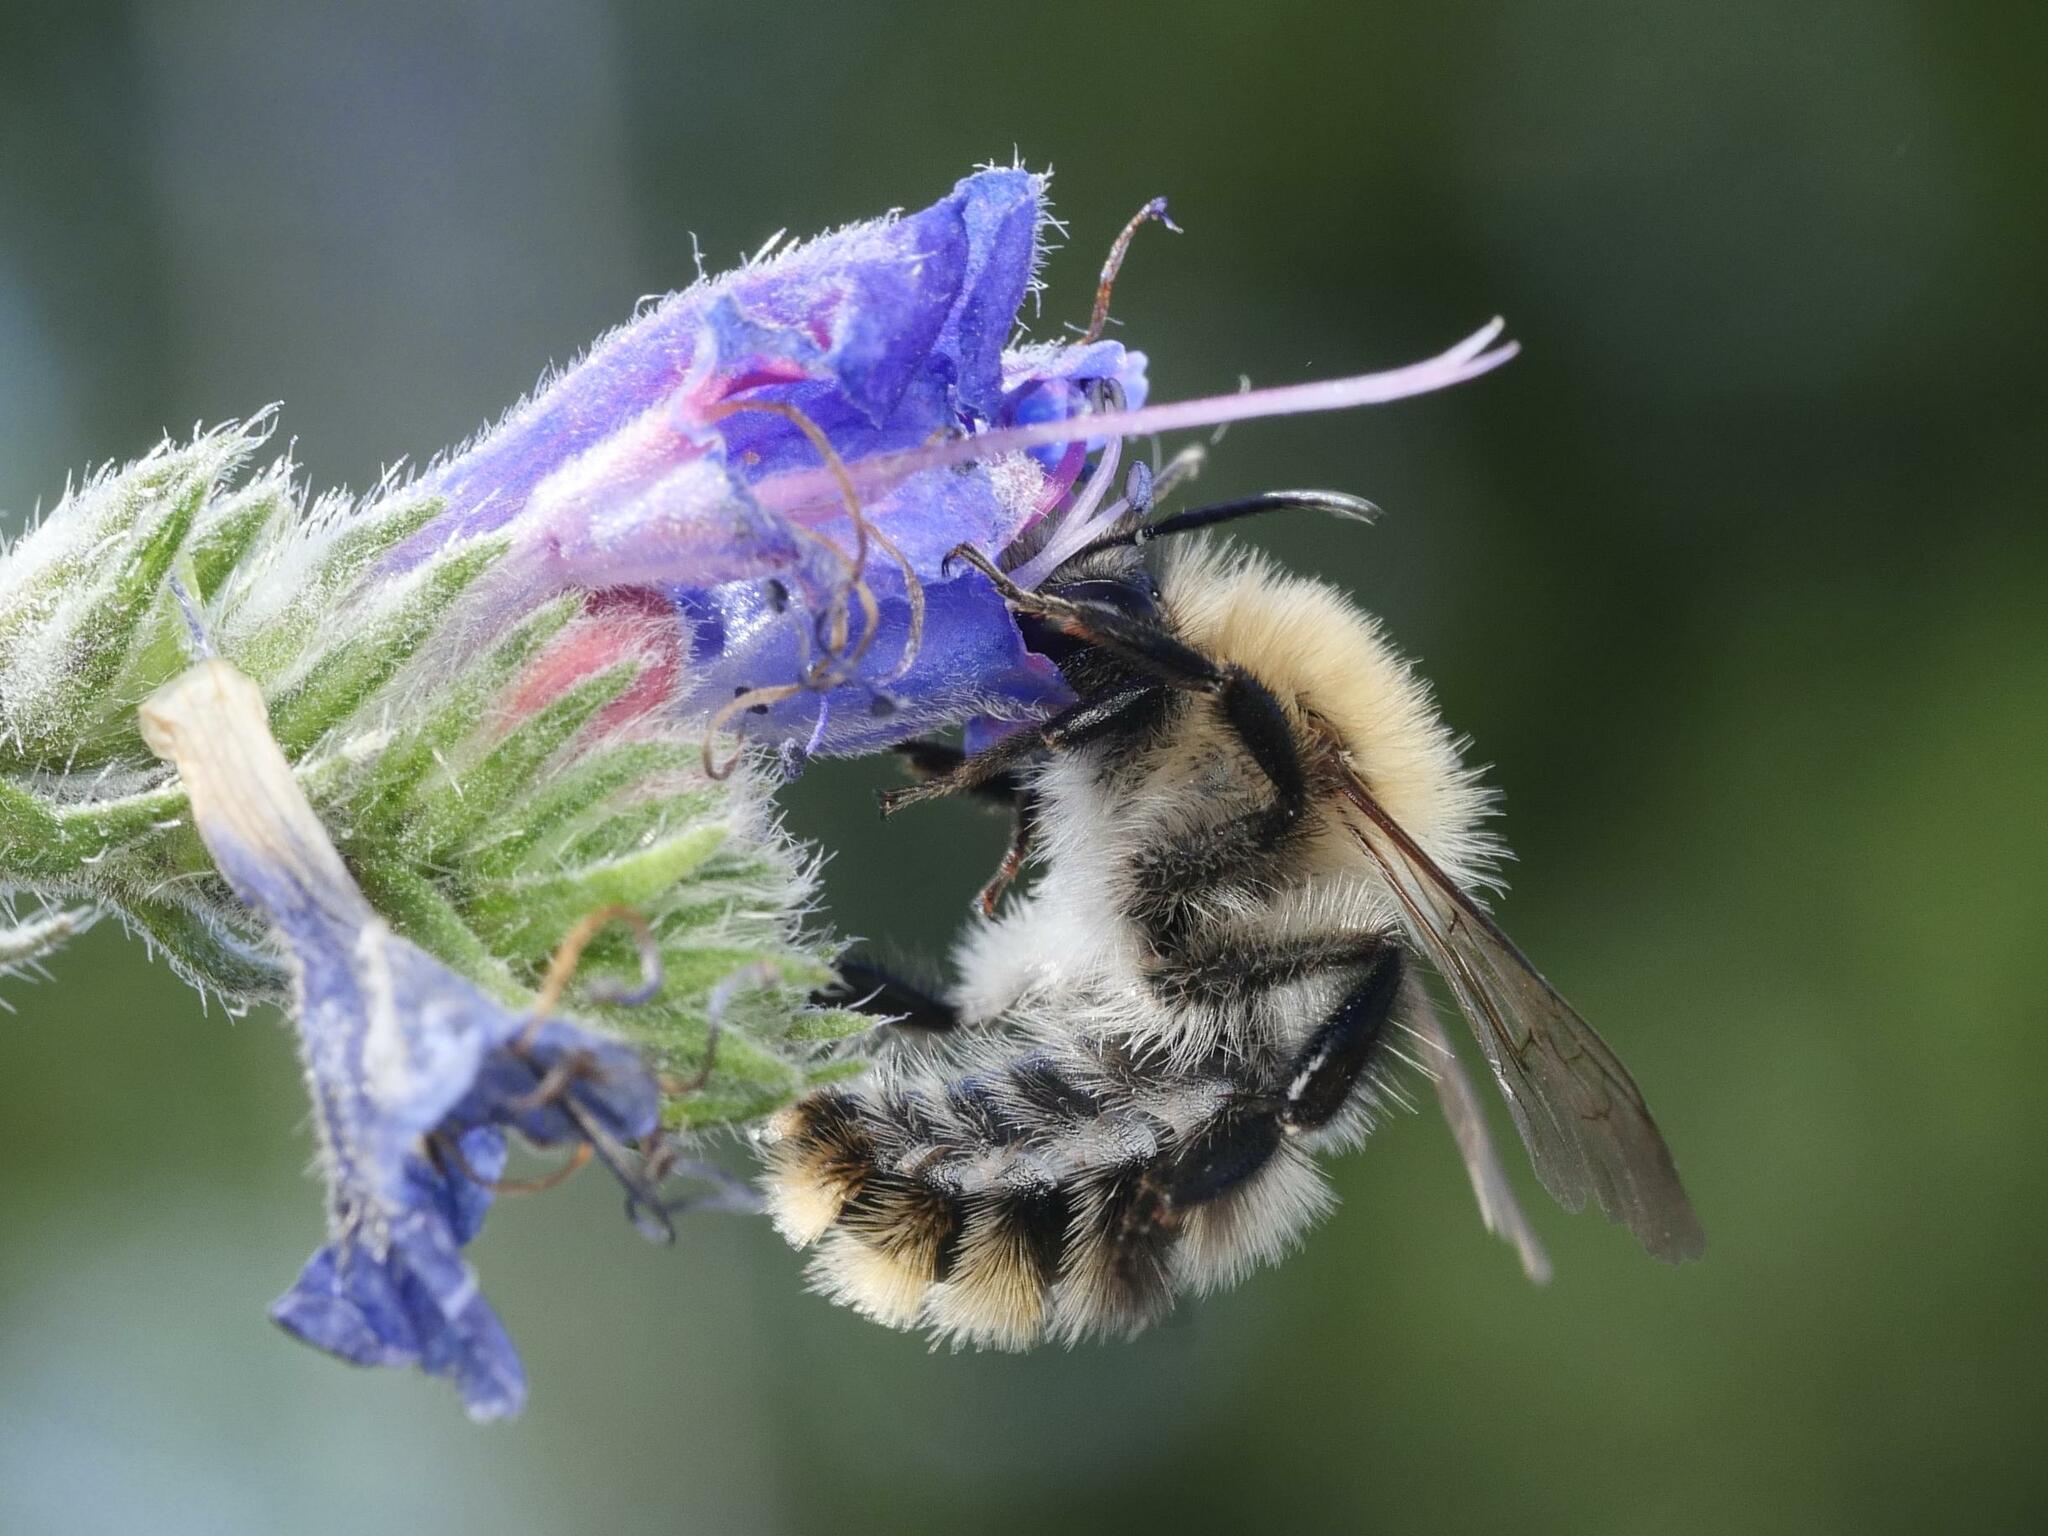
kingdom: Animalia
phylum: Arthropoda
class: Insecta
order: Hymenoptera
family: Apidae
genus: Bombus
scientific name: Bombus pascuorum
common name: Common carder bee
